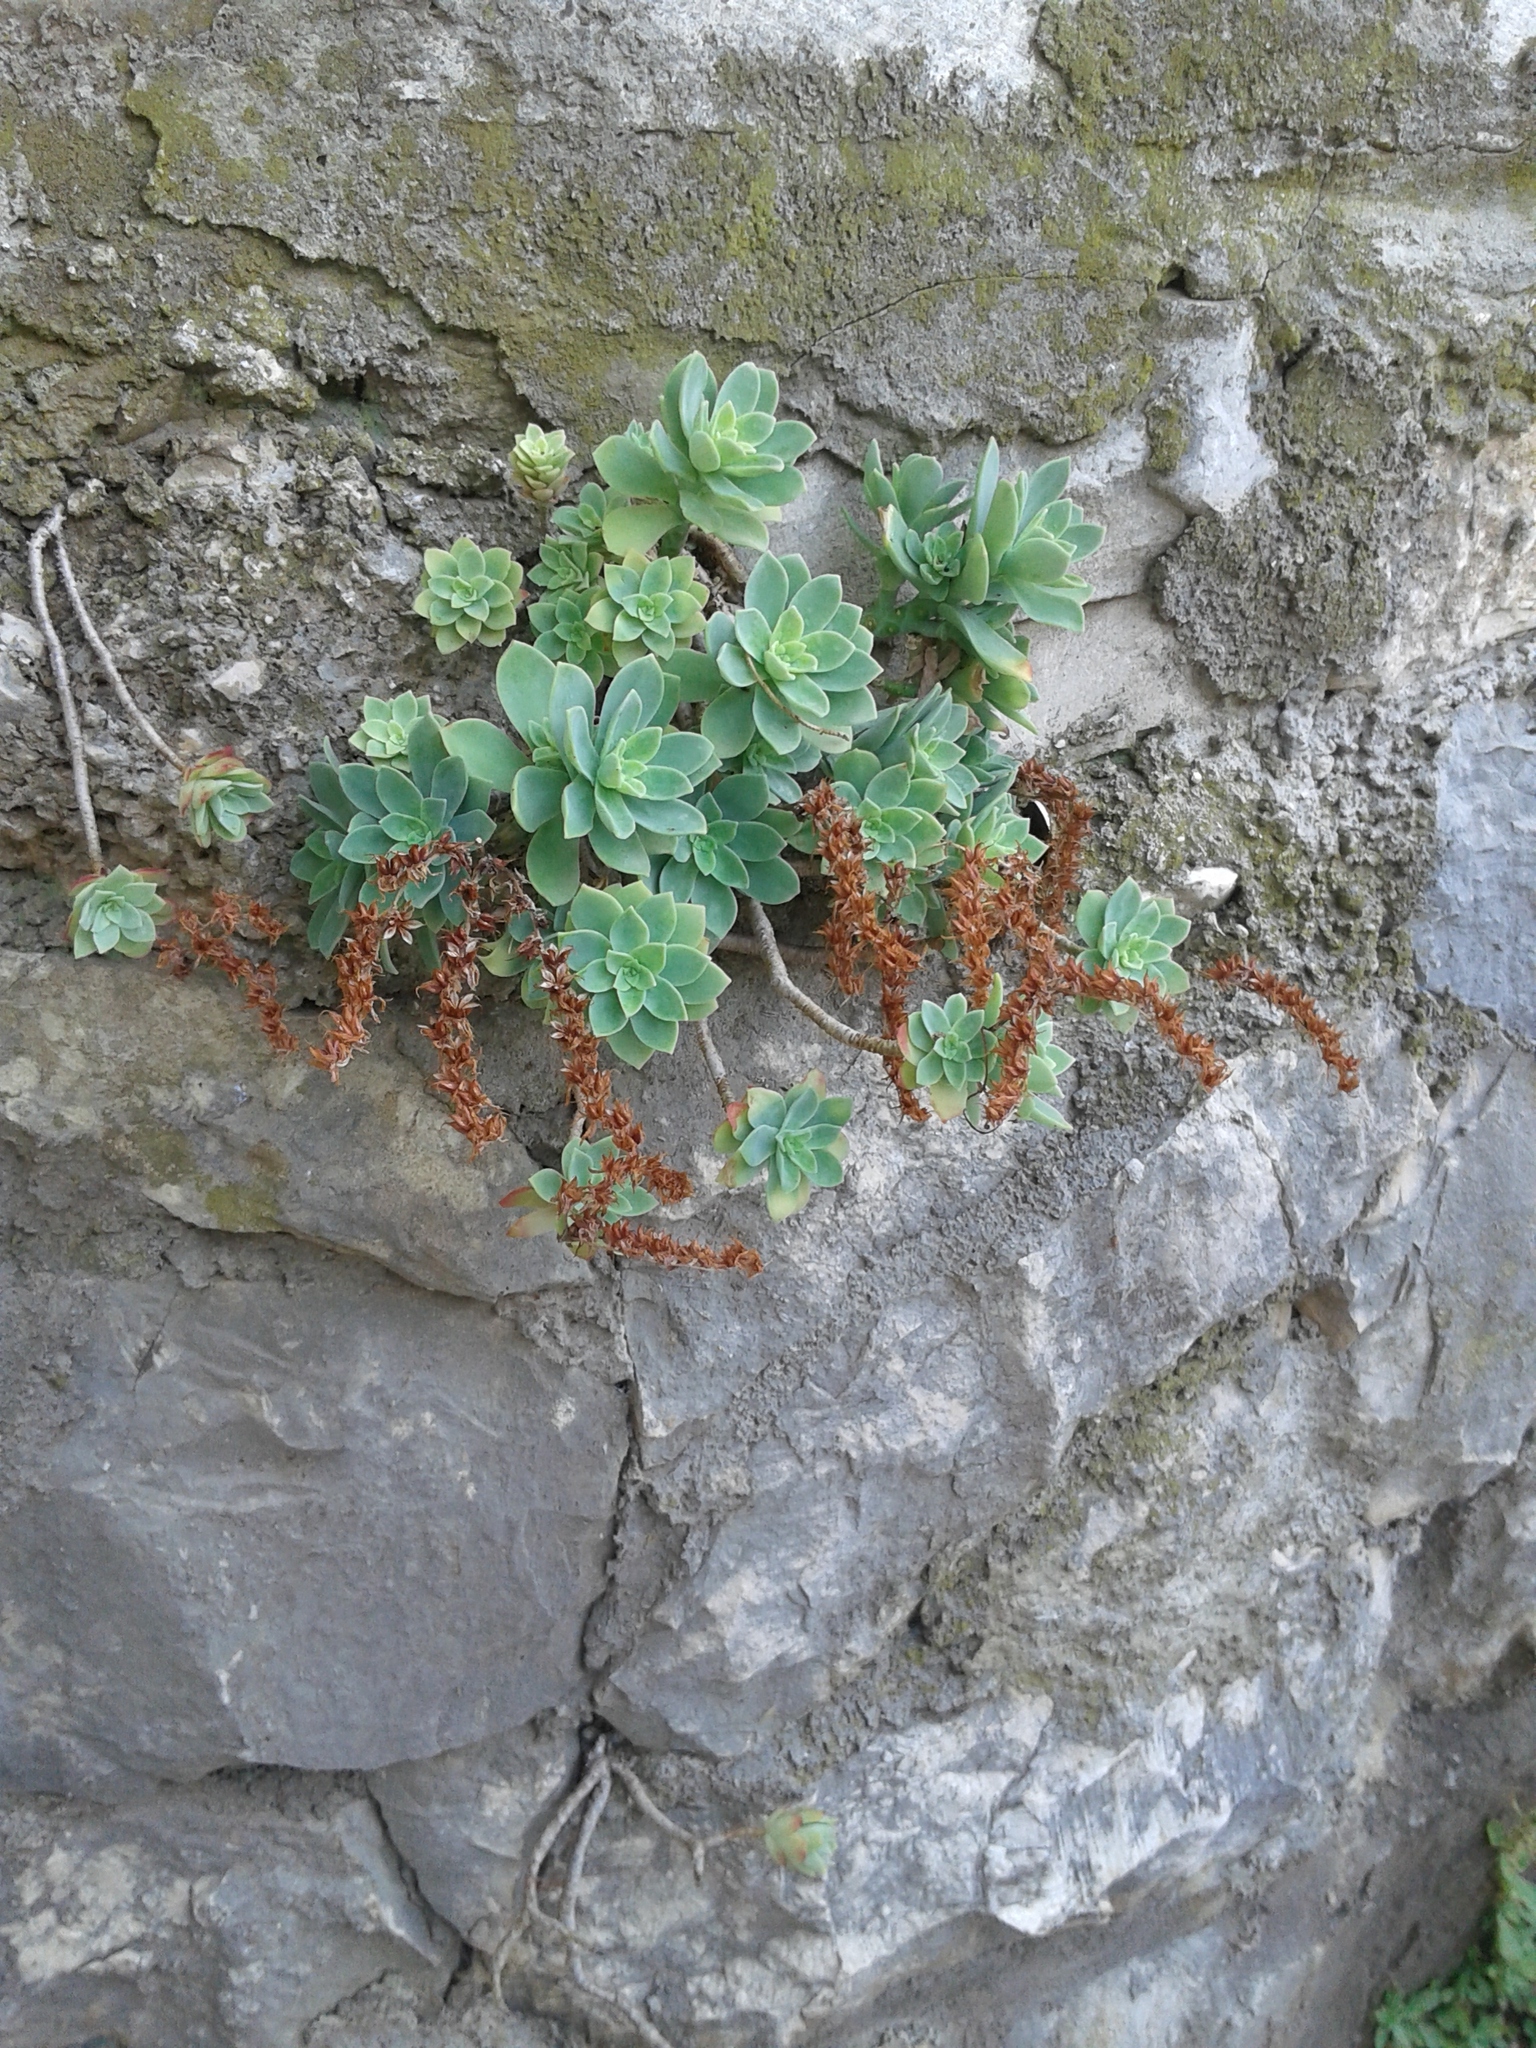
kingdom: Plantae
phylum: Tracheophyta
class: Magnoliopsida
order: Saxifragales
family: Crassulaceae
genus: Sedum
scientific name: Sedum palmeri
